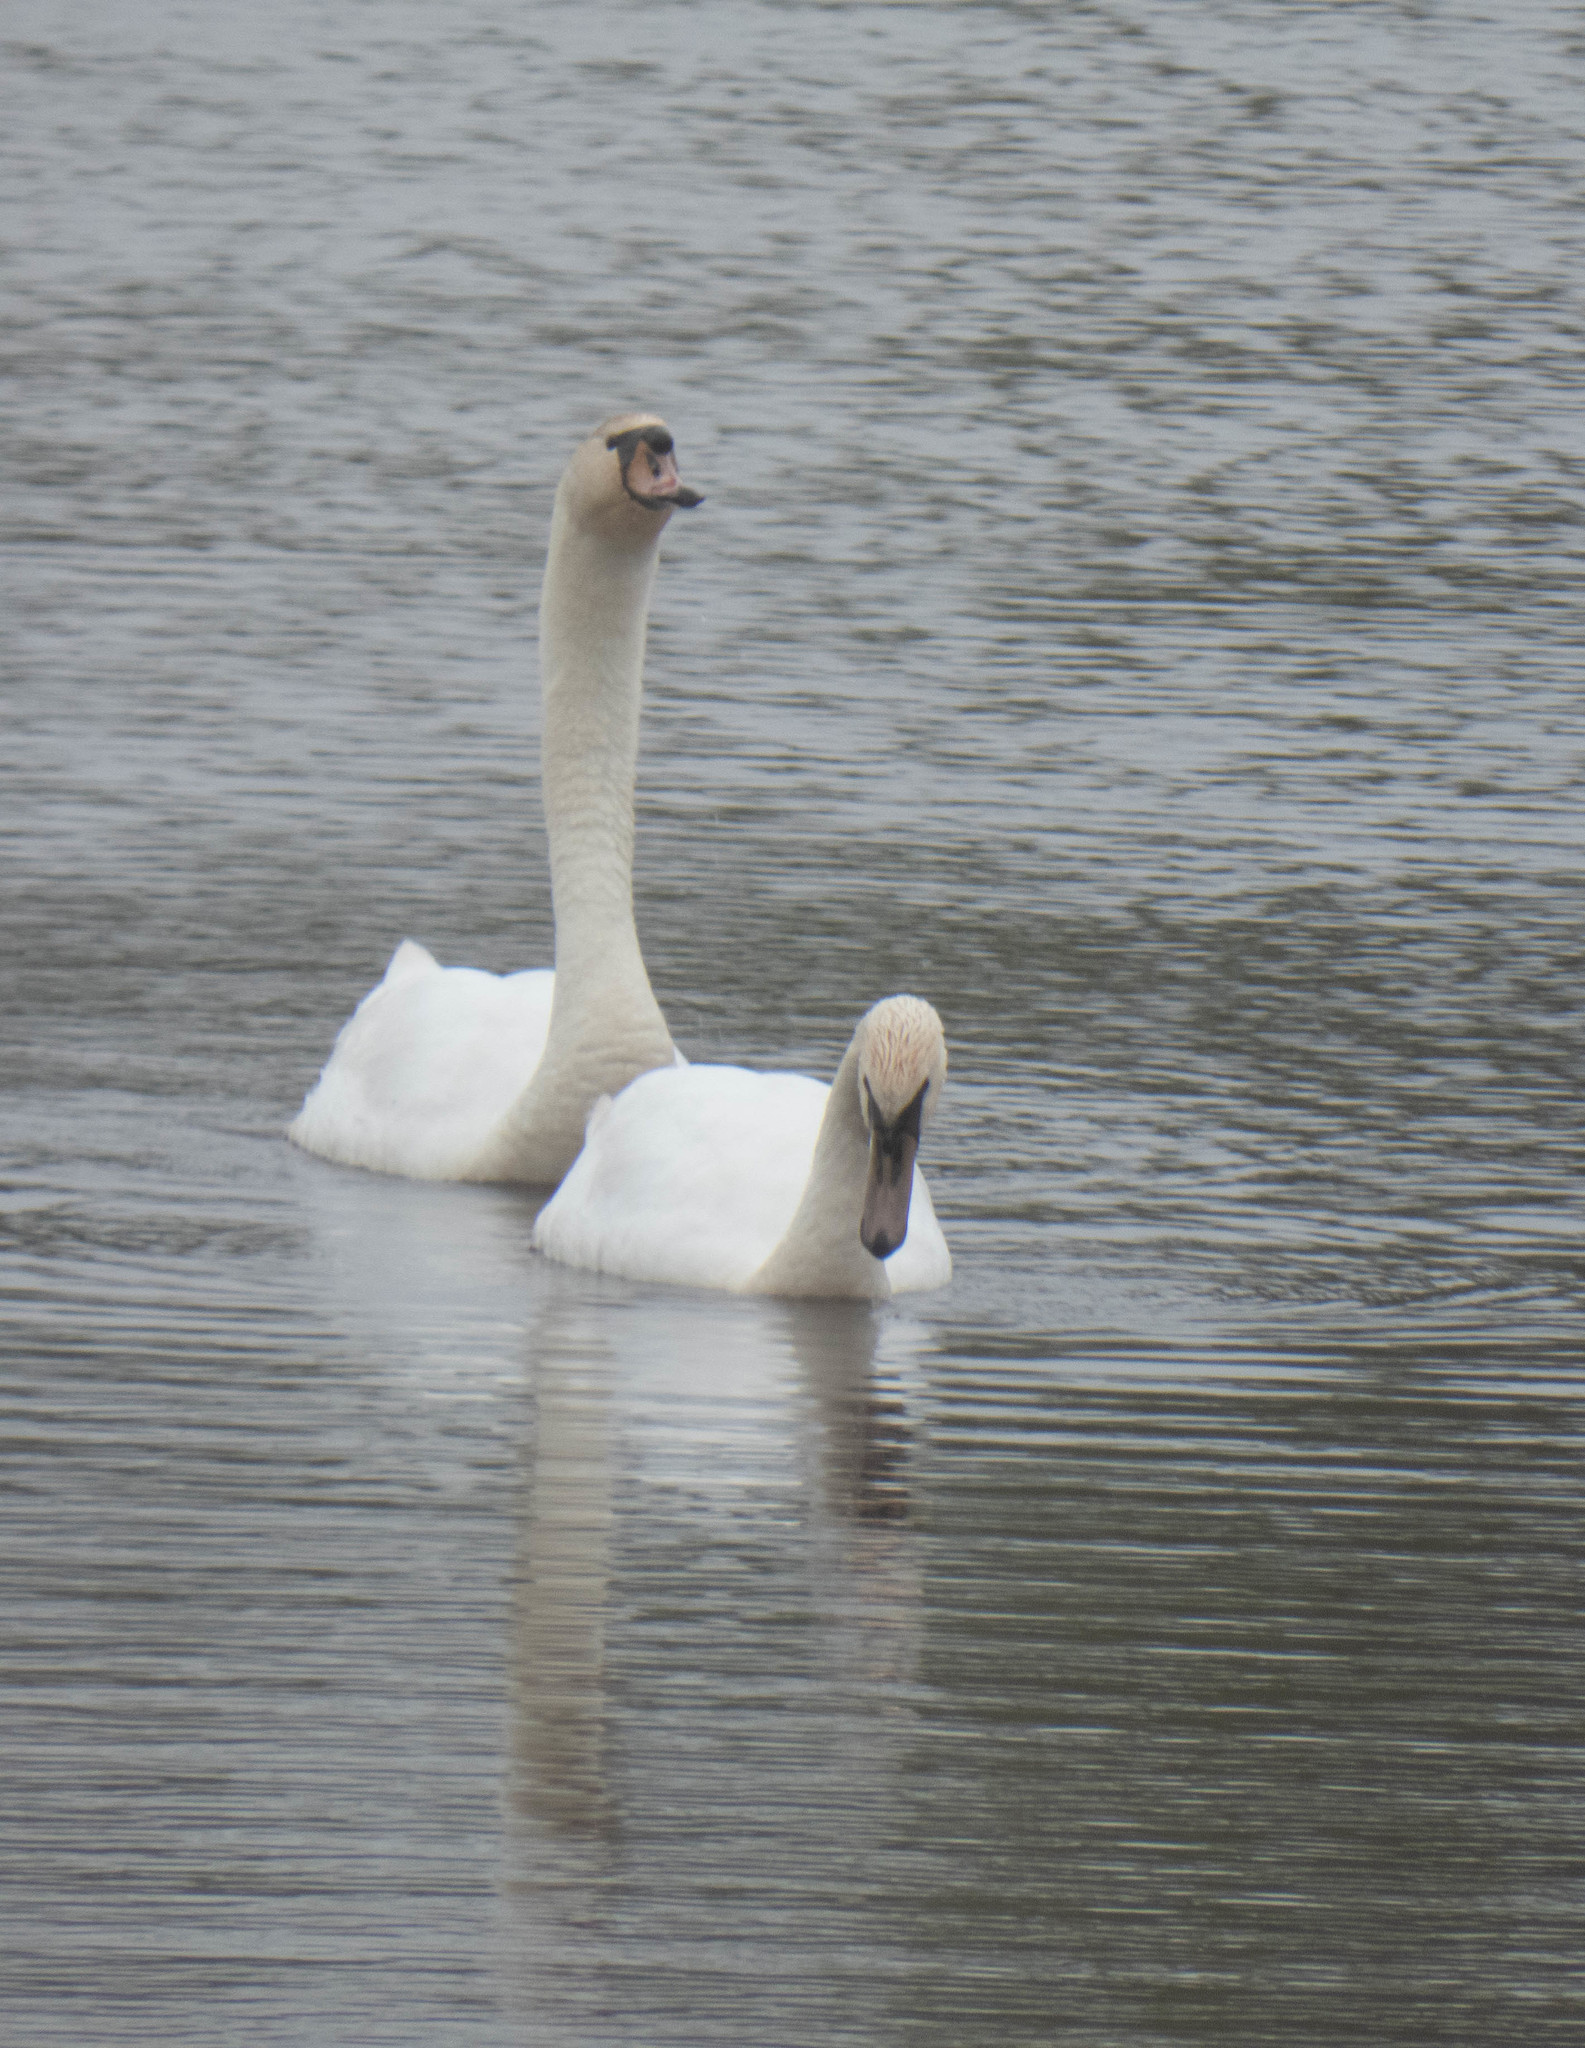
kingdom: Animalia
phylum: Chordata
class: Aves
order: Anseriformes
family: Anatidae
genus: Cygnus
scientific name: Cygnus olor
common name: Mute swan
